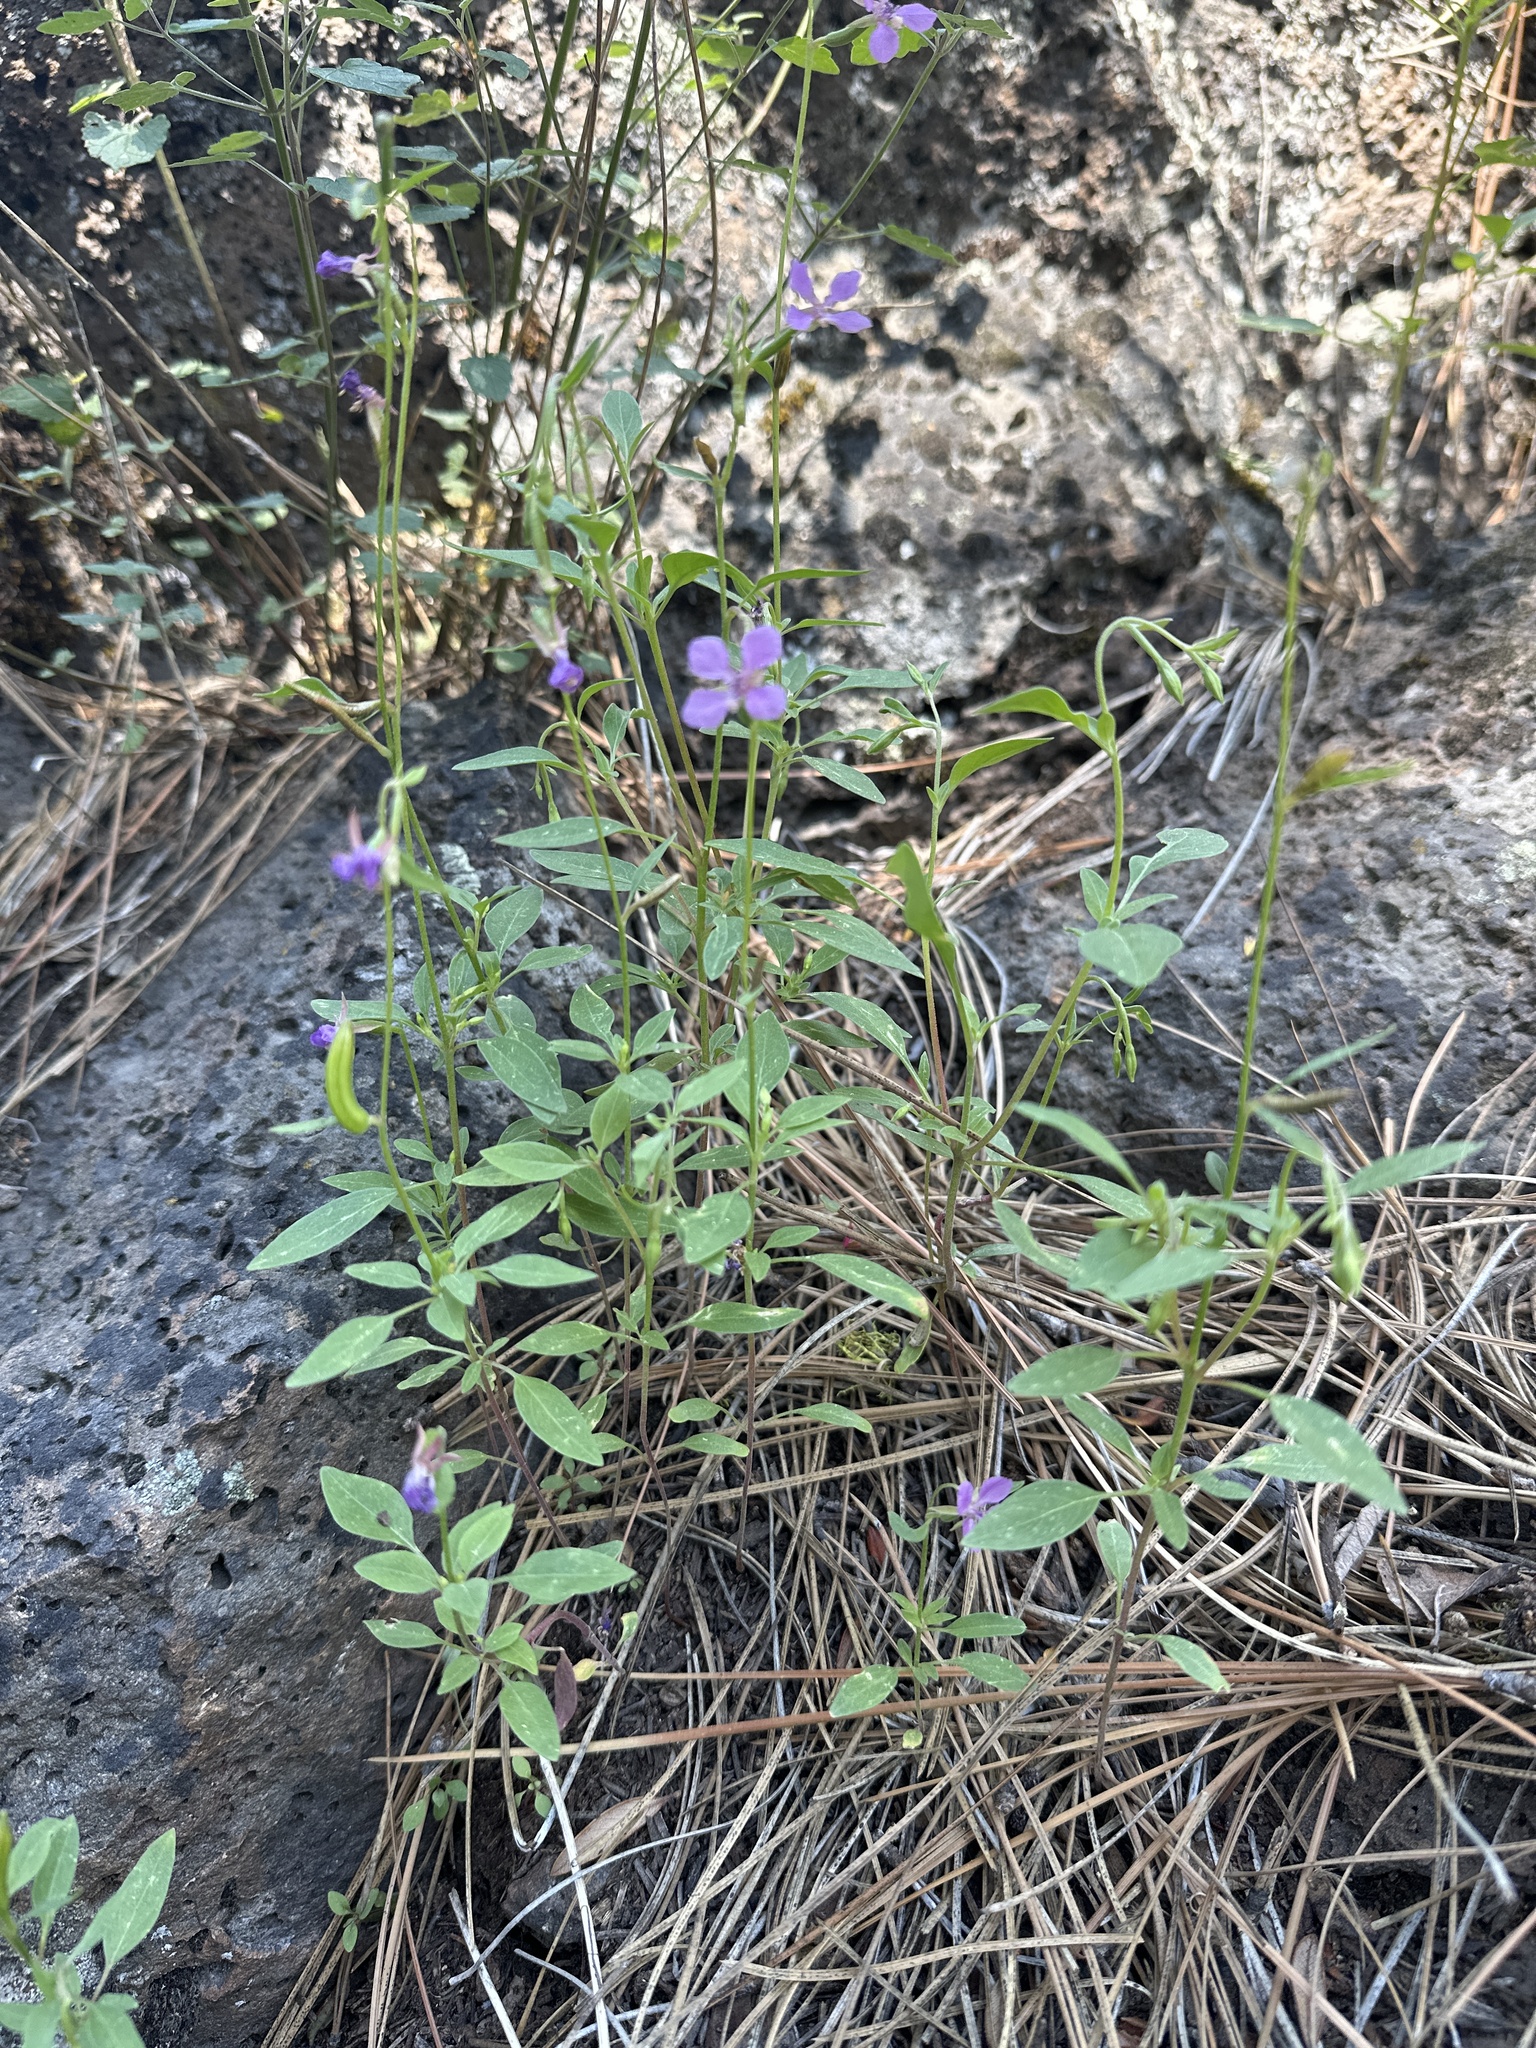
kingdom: Plantae
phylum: Tracheophyta
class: Magnoliopsida
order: Myrtales
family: Onagraceae
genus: Clarkia
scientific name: Clarkia rhomboidea
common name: Broadleaf clarkia
